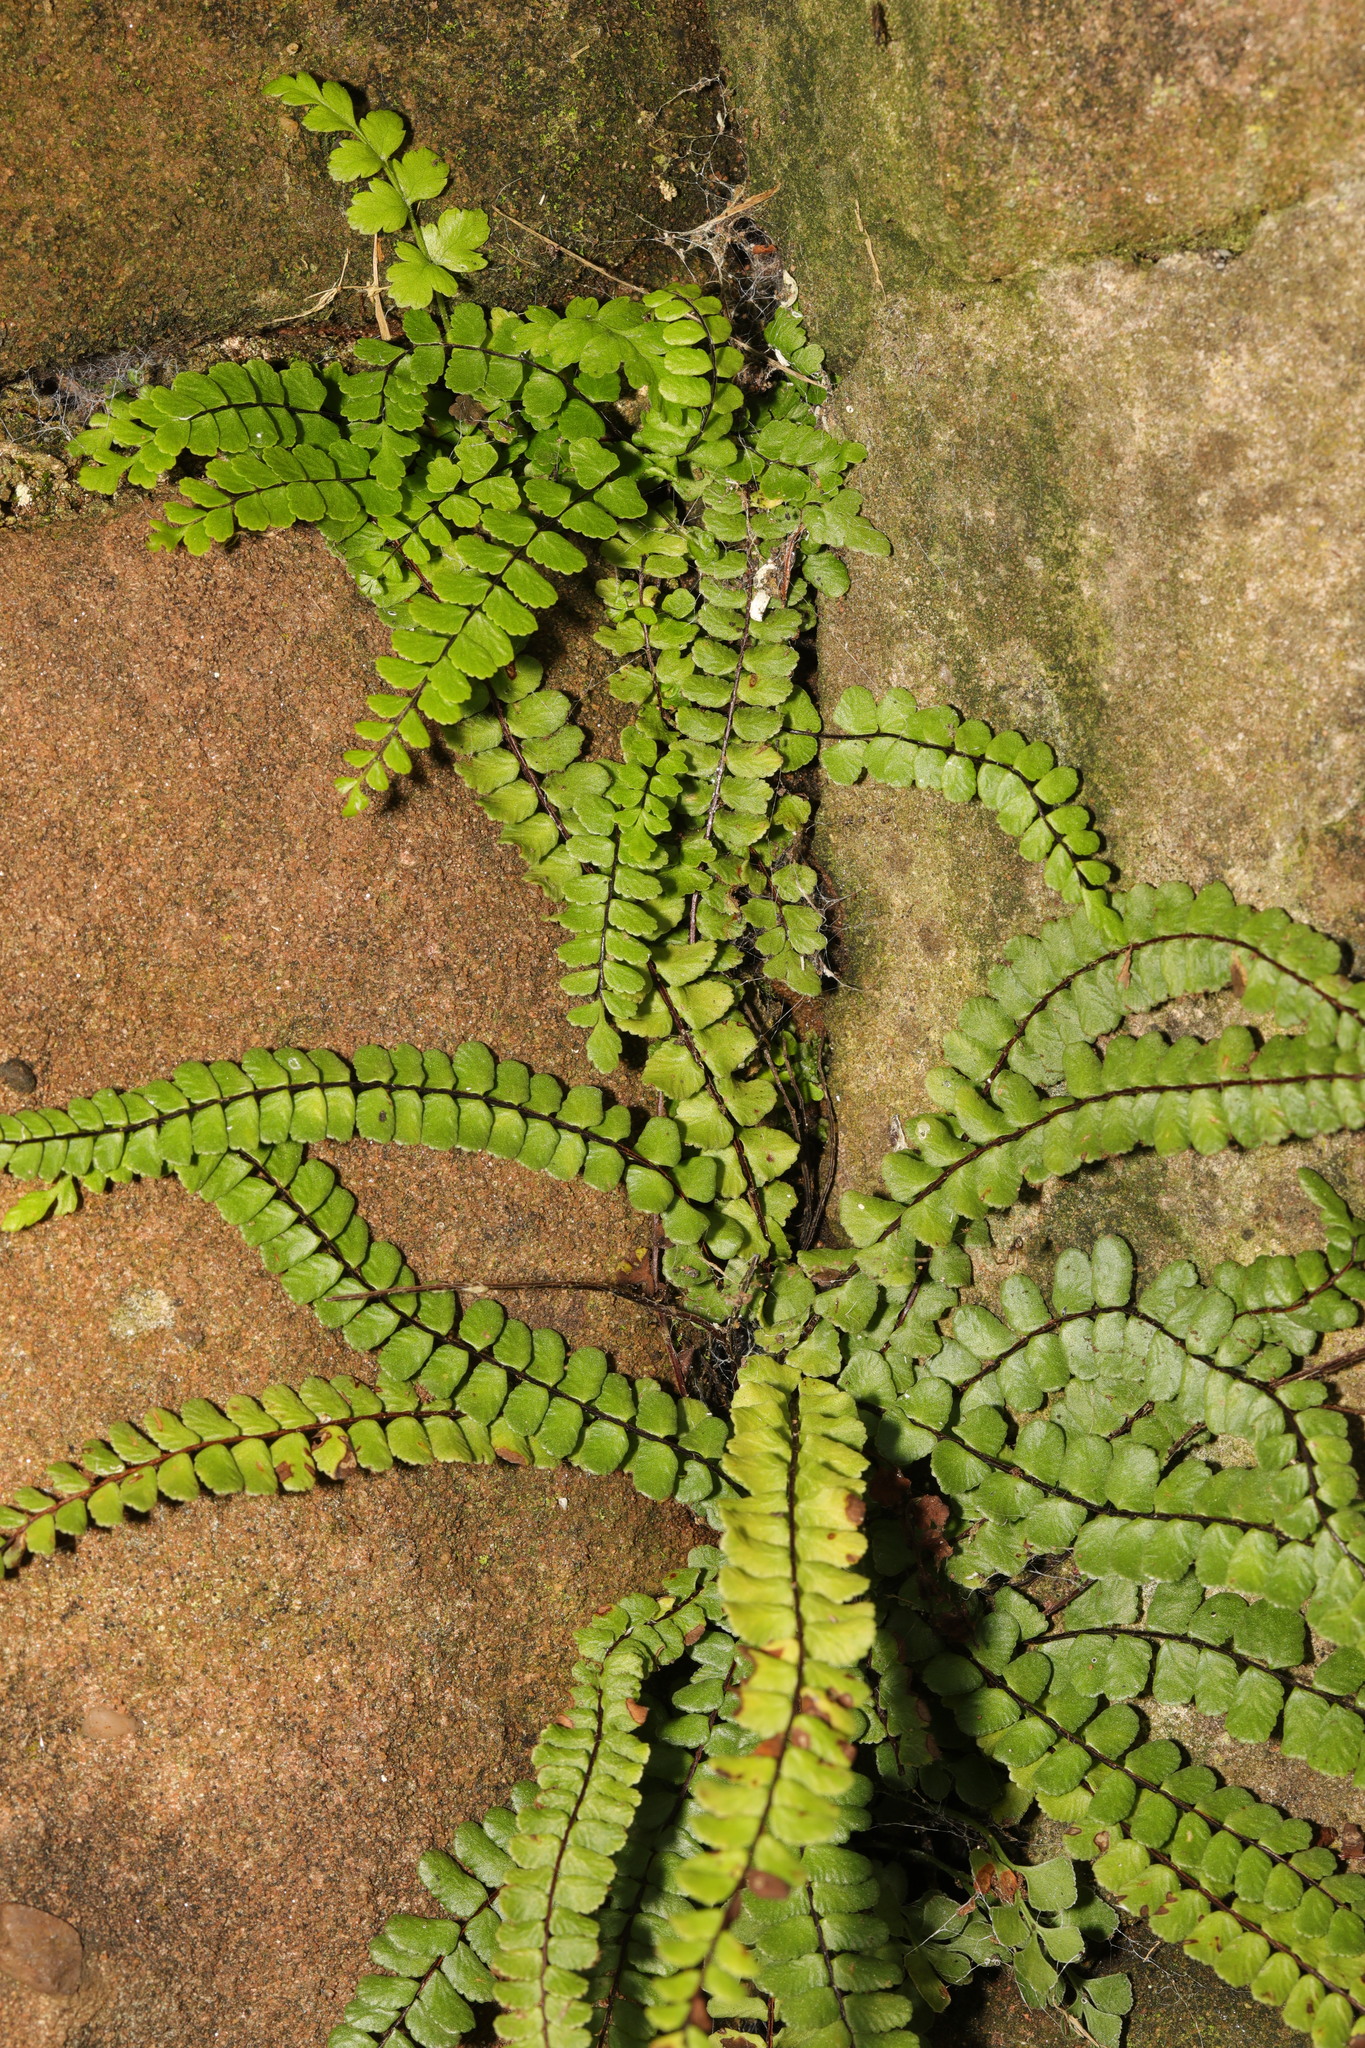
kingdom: Plantae
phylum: Tracheophyta
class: Polypodiopsida
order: Polypodiales
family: Aspleniaceae
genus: Asplenium
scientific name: Asplenium trichomanes
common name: Maidenhair spleenwort
